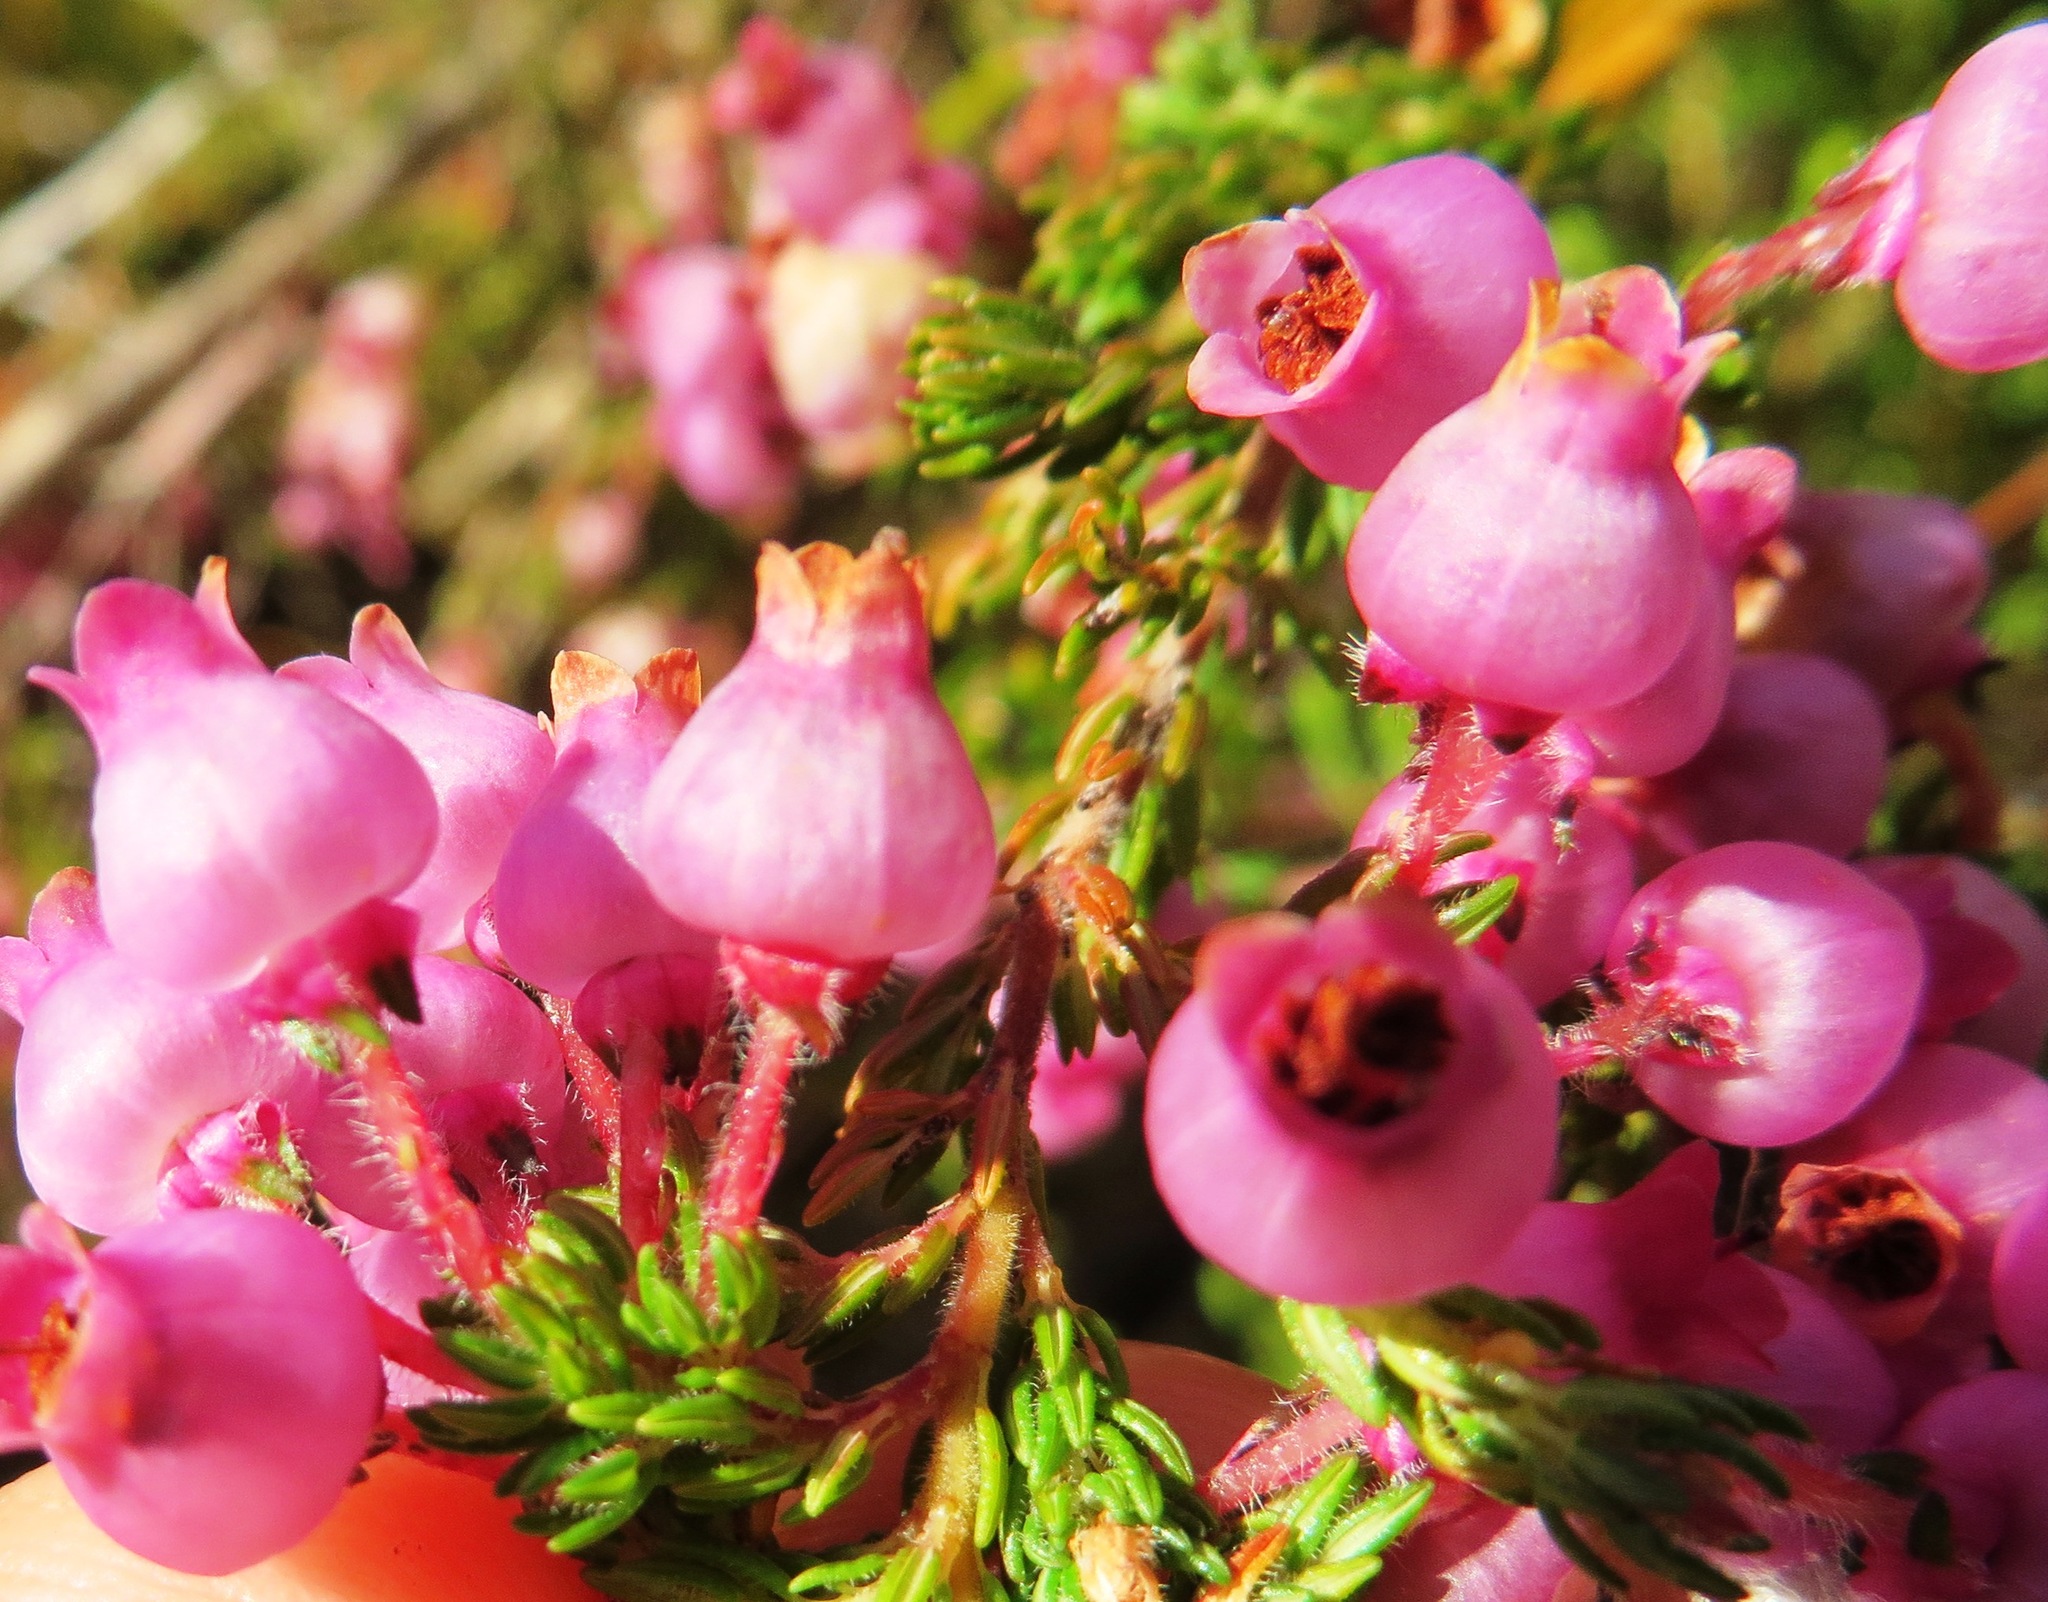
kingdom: Plantae
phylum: Tracheophyta
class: Magnoliopsida
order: Ericales
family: Ericaceae
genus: Erica
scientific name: Erica bergiana
